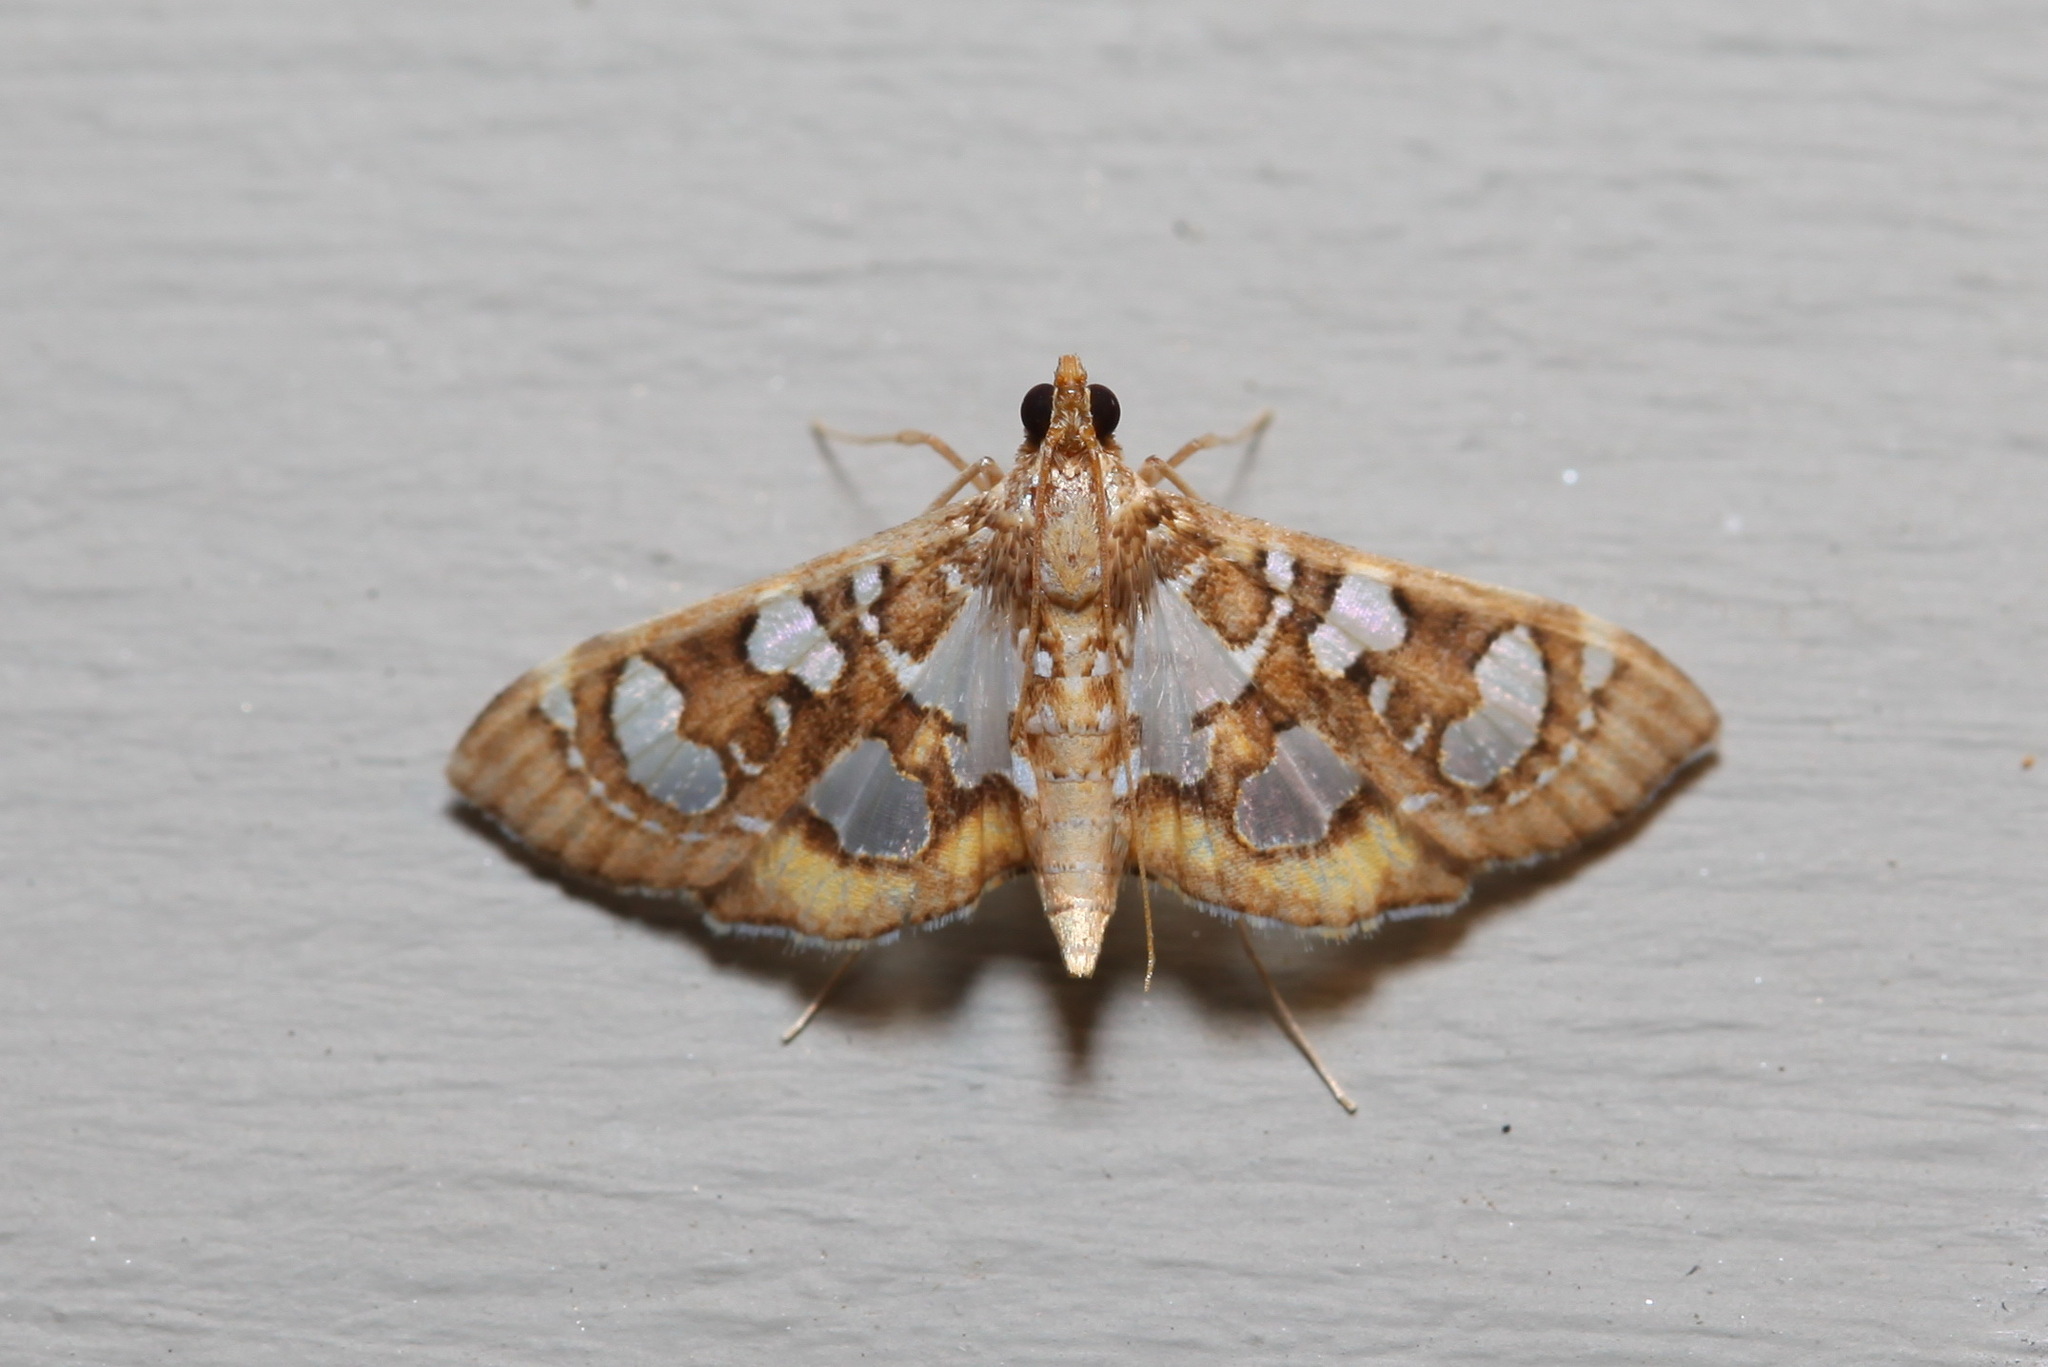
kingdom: Animalia
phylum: Arthropoda
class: Insecta
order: Lepidoptera
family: Crambidae
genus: Glyphodella
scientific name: Glyphodella flavibrunnea
